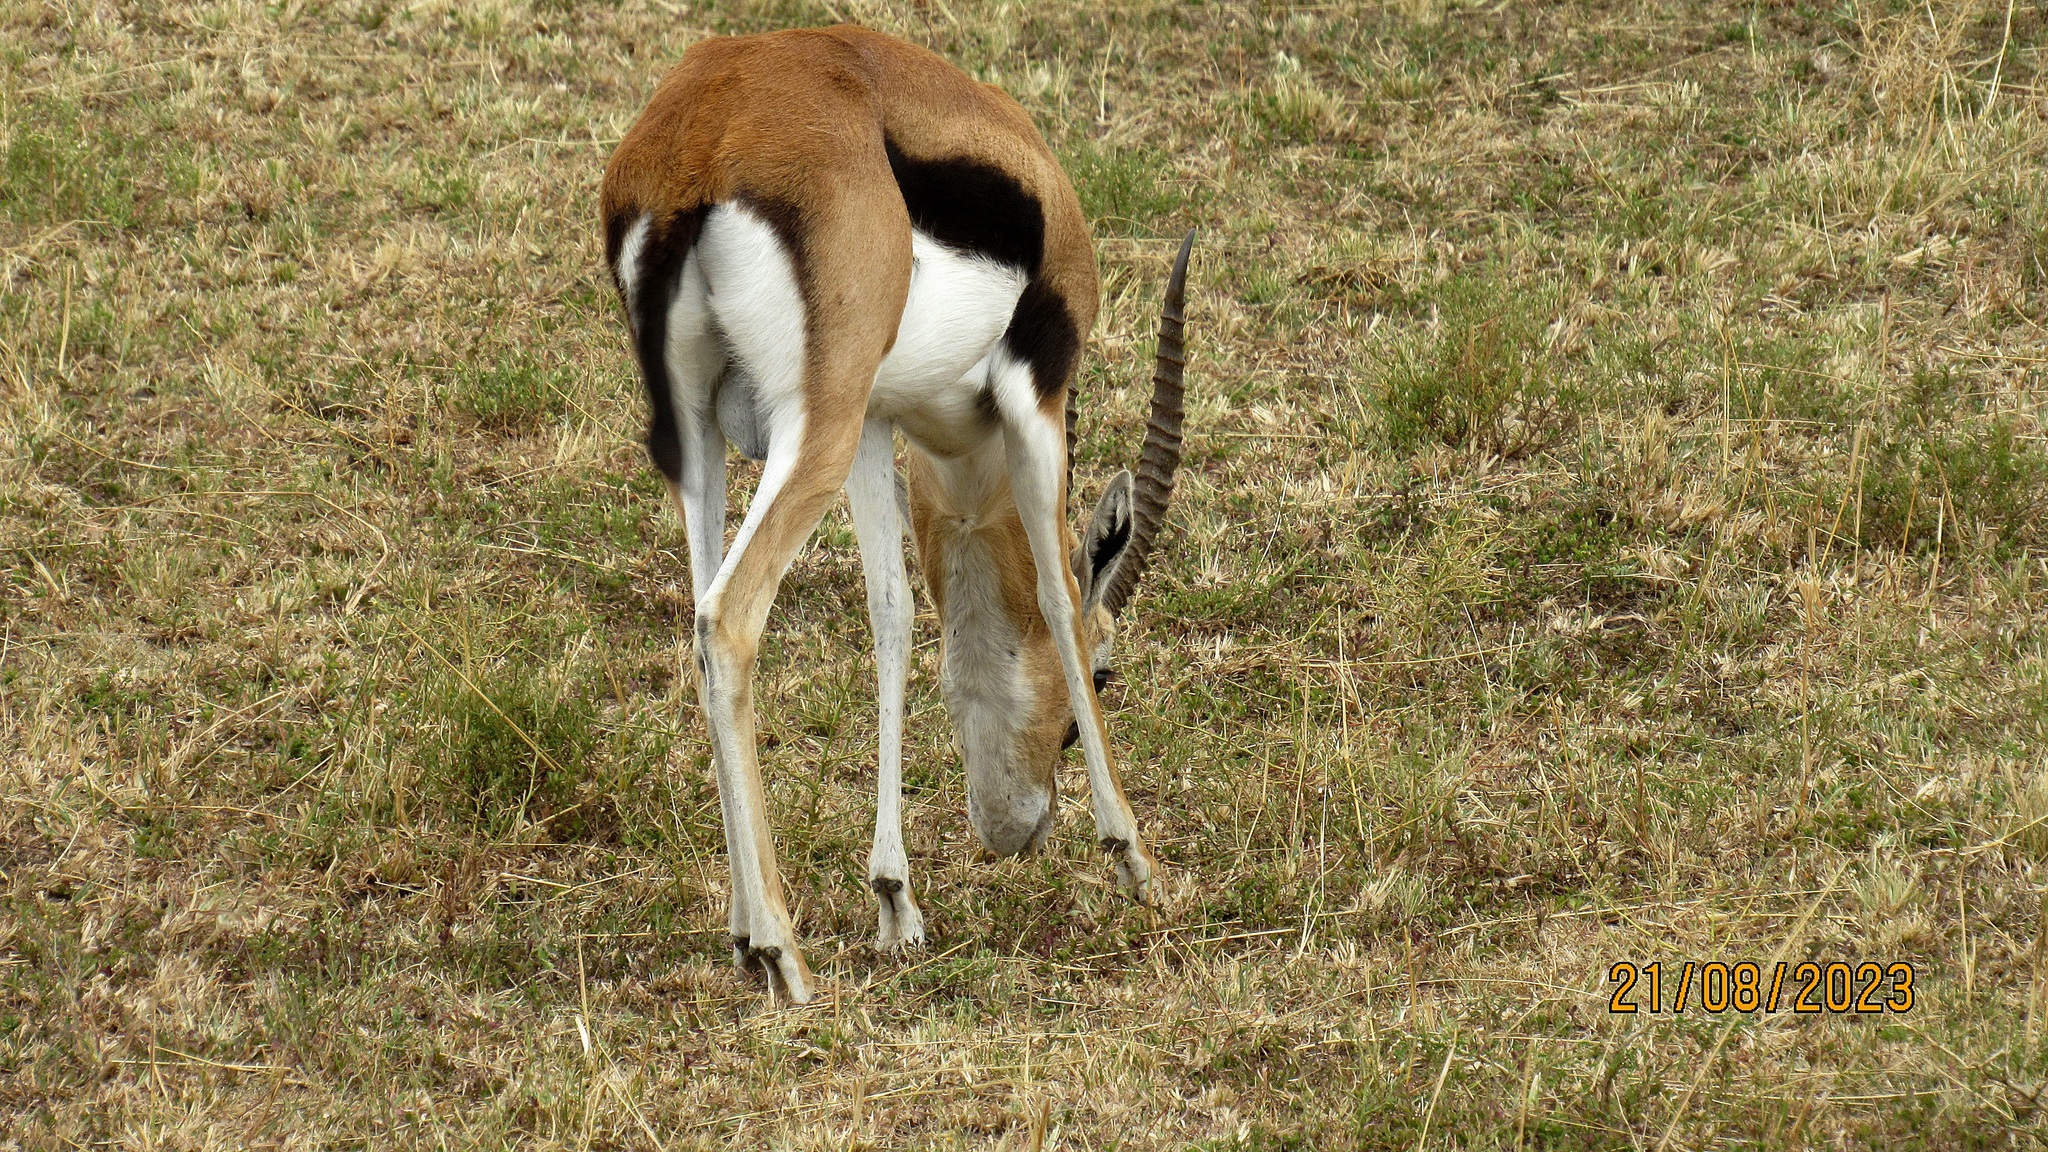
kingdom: Animalia
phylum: Chordata
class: Mammalia
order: Artiodactyla
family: Bovidae
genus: Eudorcas
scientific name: Eudorcas thomsonii
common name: Thomson's gazelle
